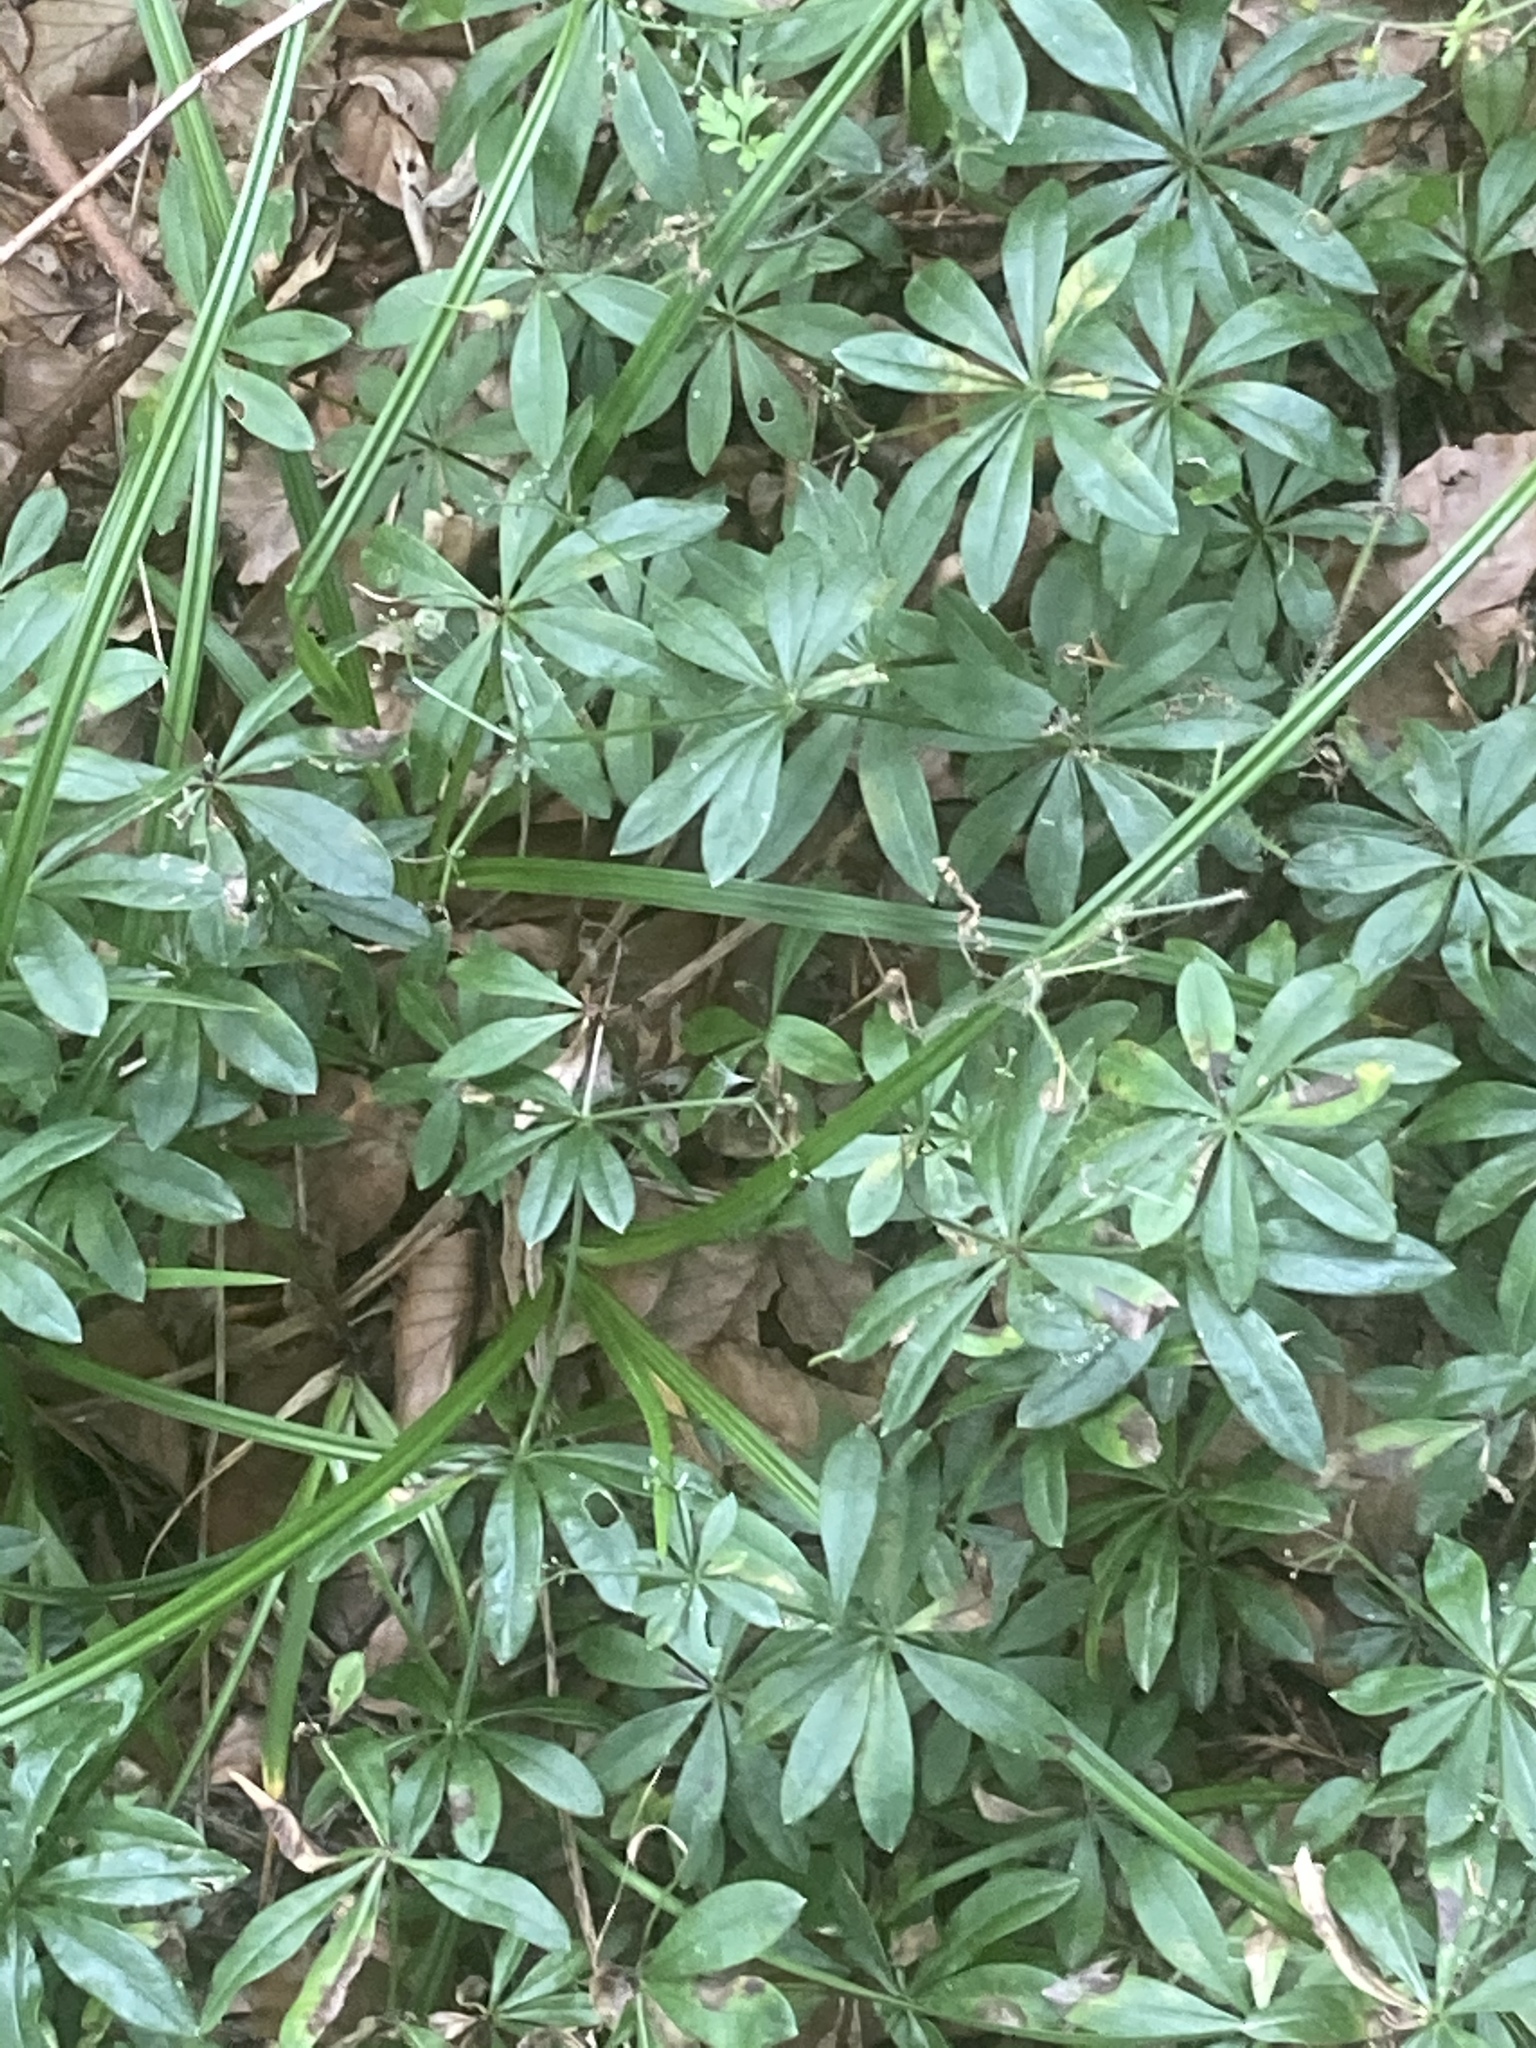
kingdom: Plantae
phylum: Tracheophyta
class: Magnoliopsida
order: Gentianales
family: Rubiaceae
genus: Galium
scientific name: Galium odoratum
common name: Sweet woodruff
